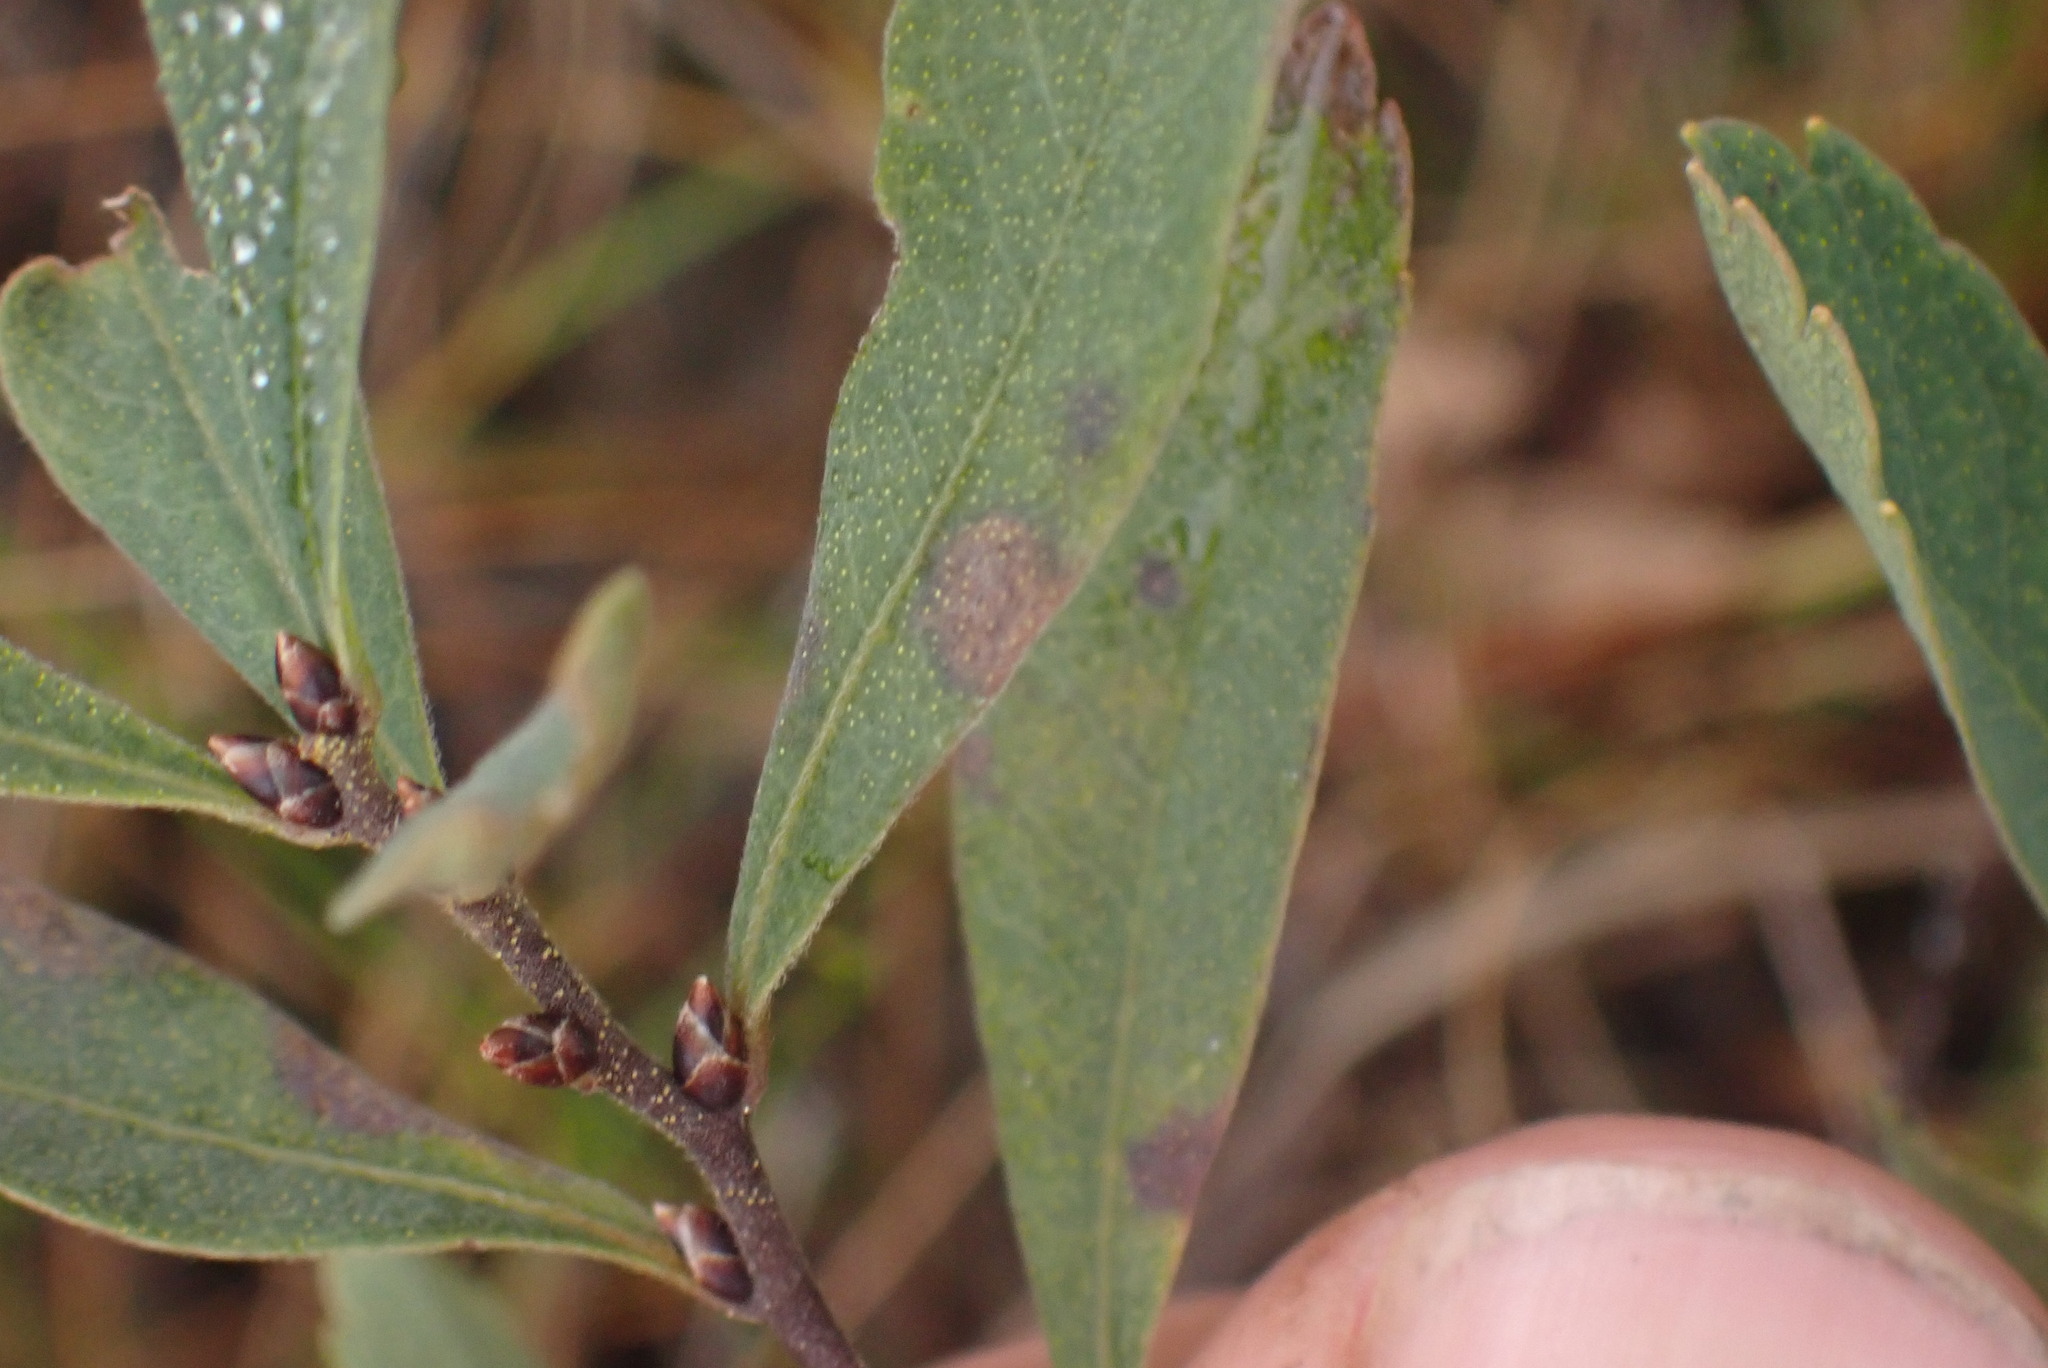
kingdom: Plantae
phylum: Tracheophyta
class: Magnoliopsida
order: Fagales
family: Myricaceae
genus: Myrica
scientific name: Myrica gale
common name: Sweet gale
